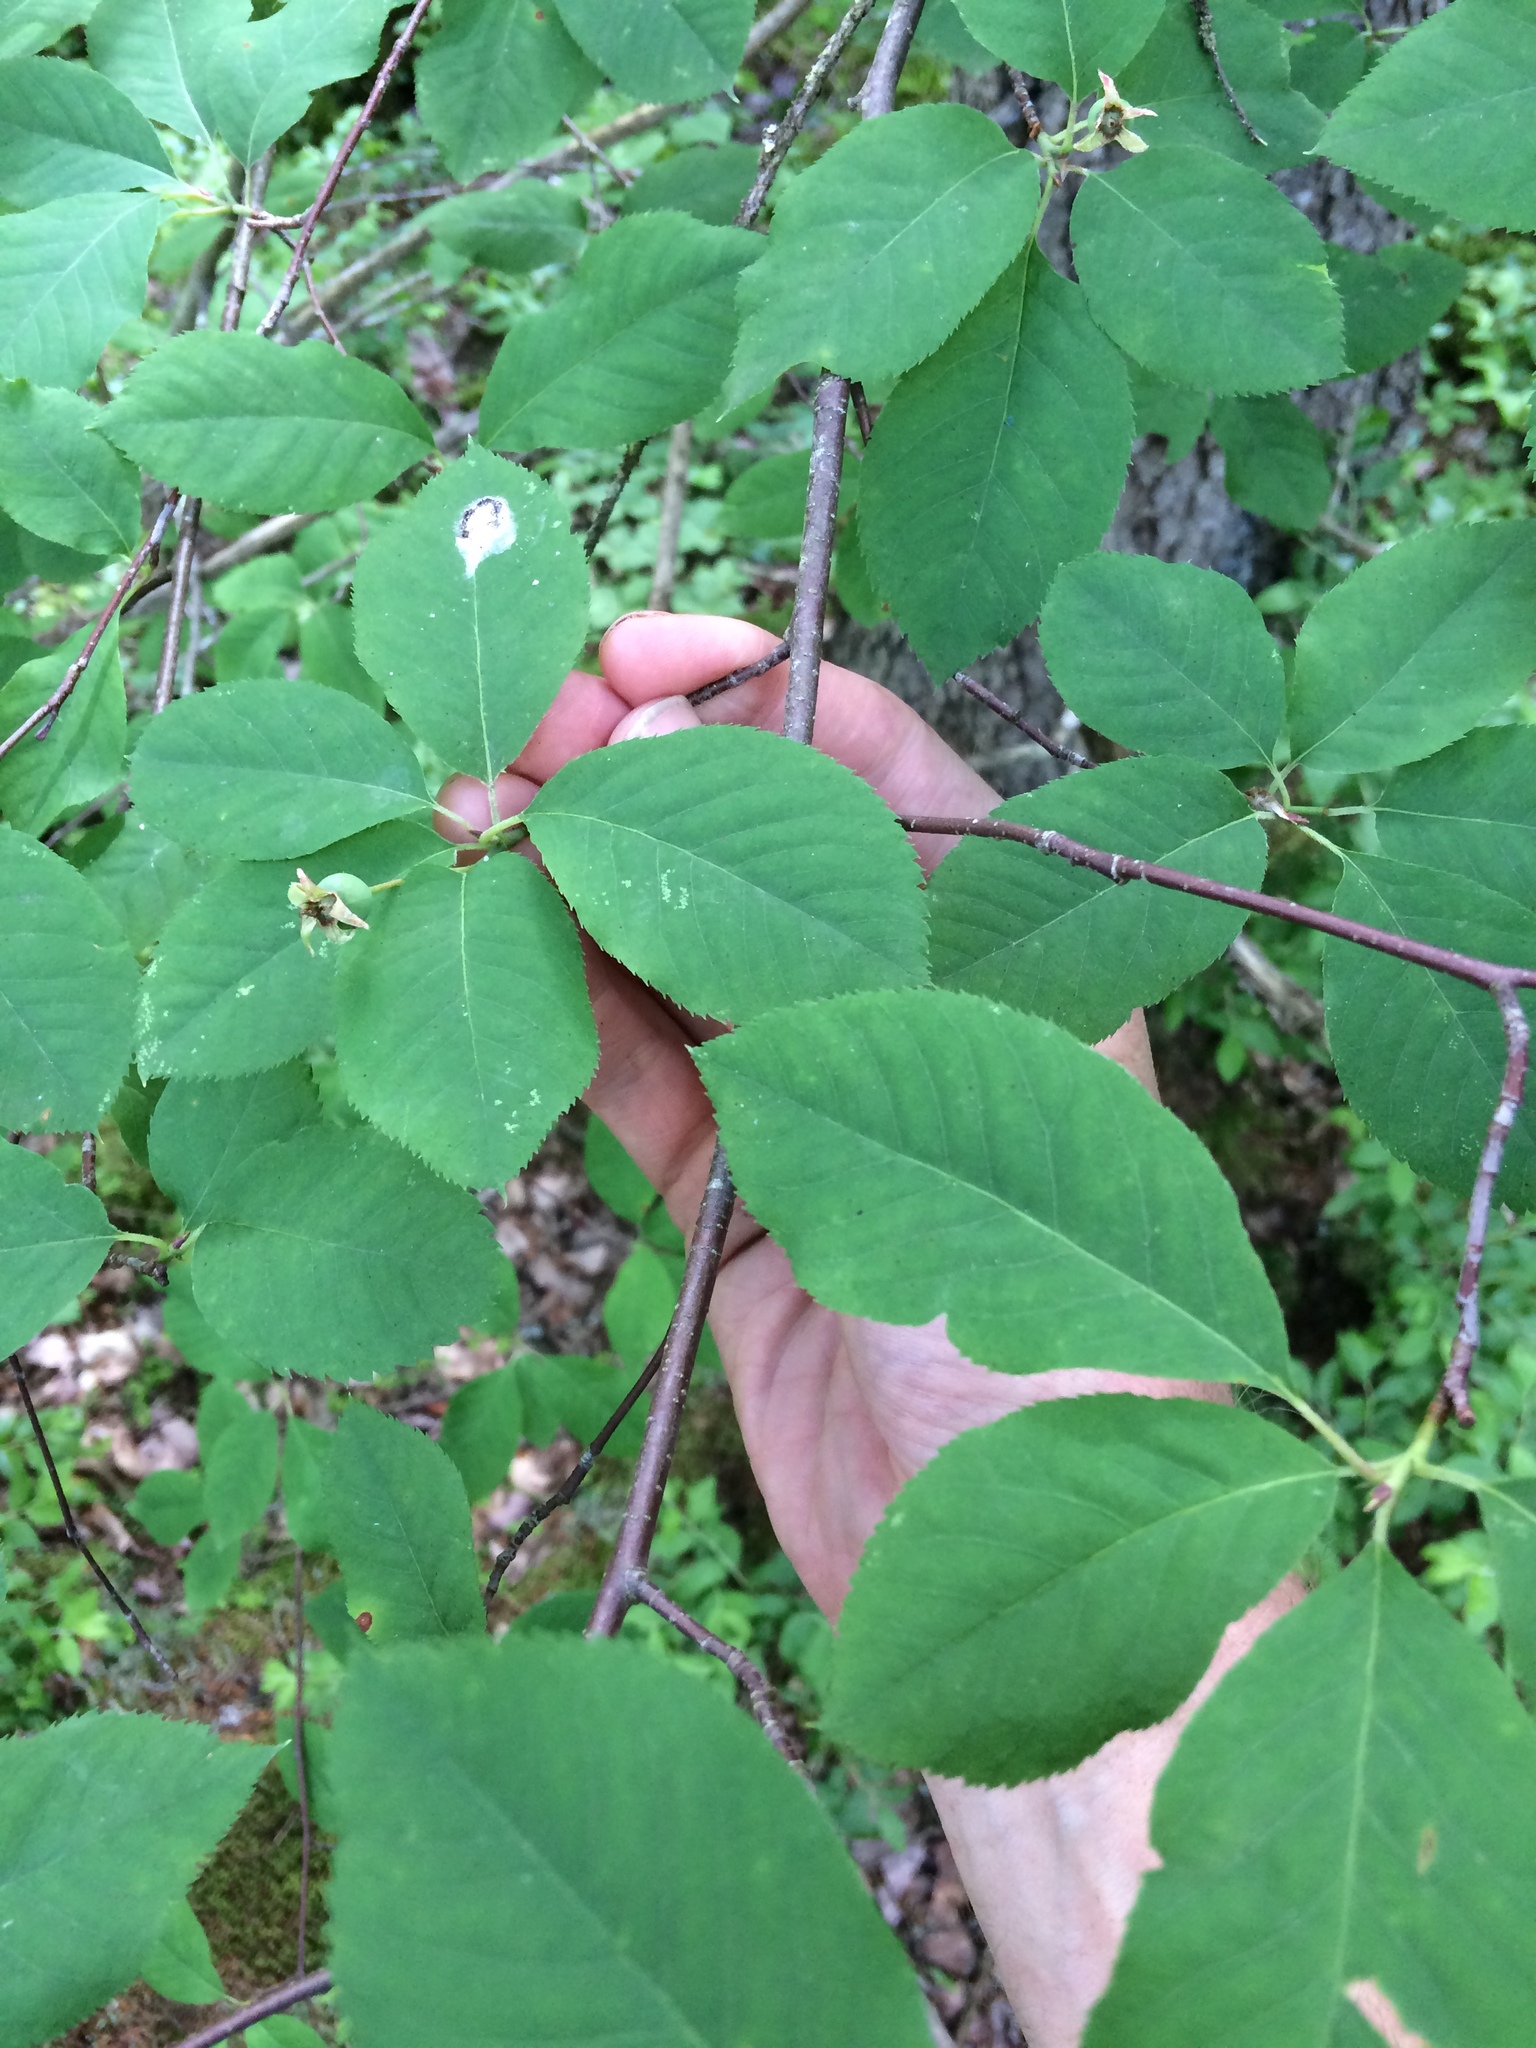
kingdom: Plantae
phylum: Tracheophyta
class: Magnoliopsida
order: Rosales
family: Rosaceae
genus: Amelanchier
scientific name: Amelanchier bartramiana
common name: Mountain serviceberry
